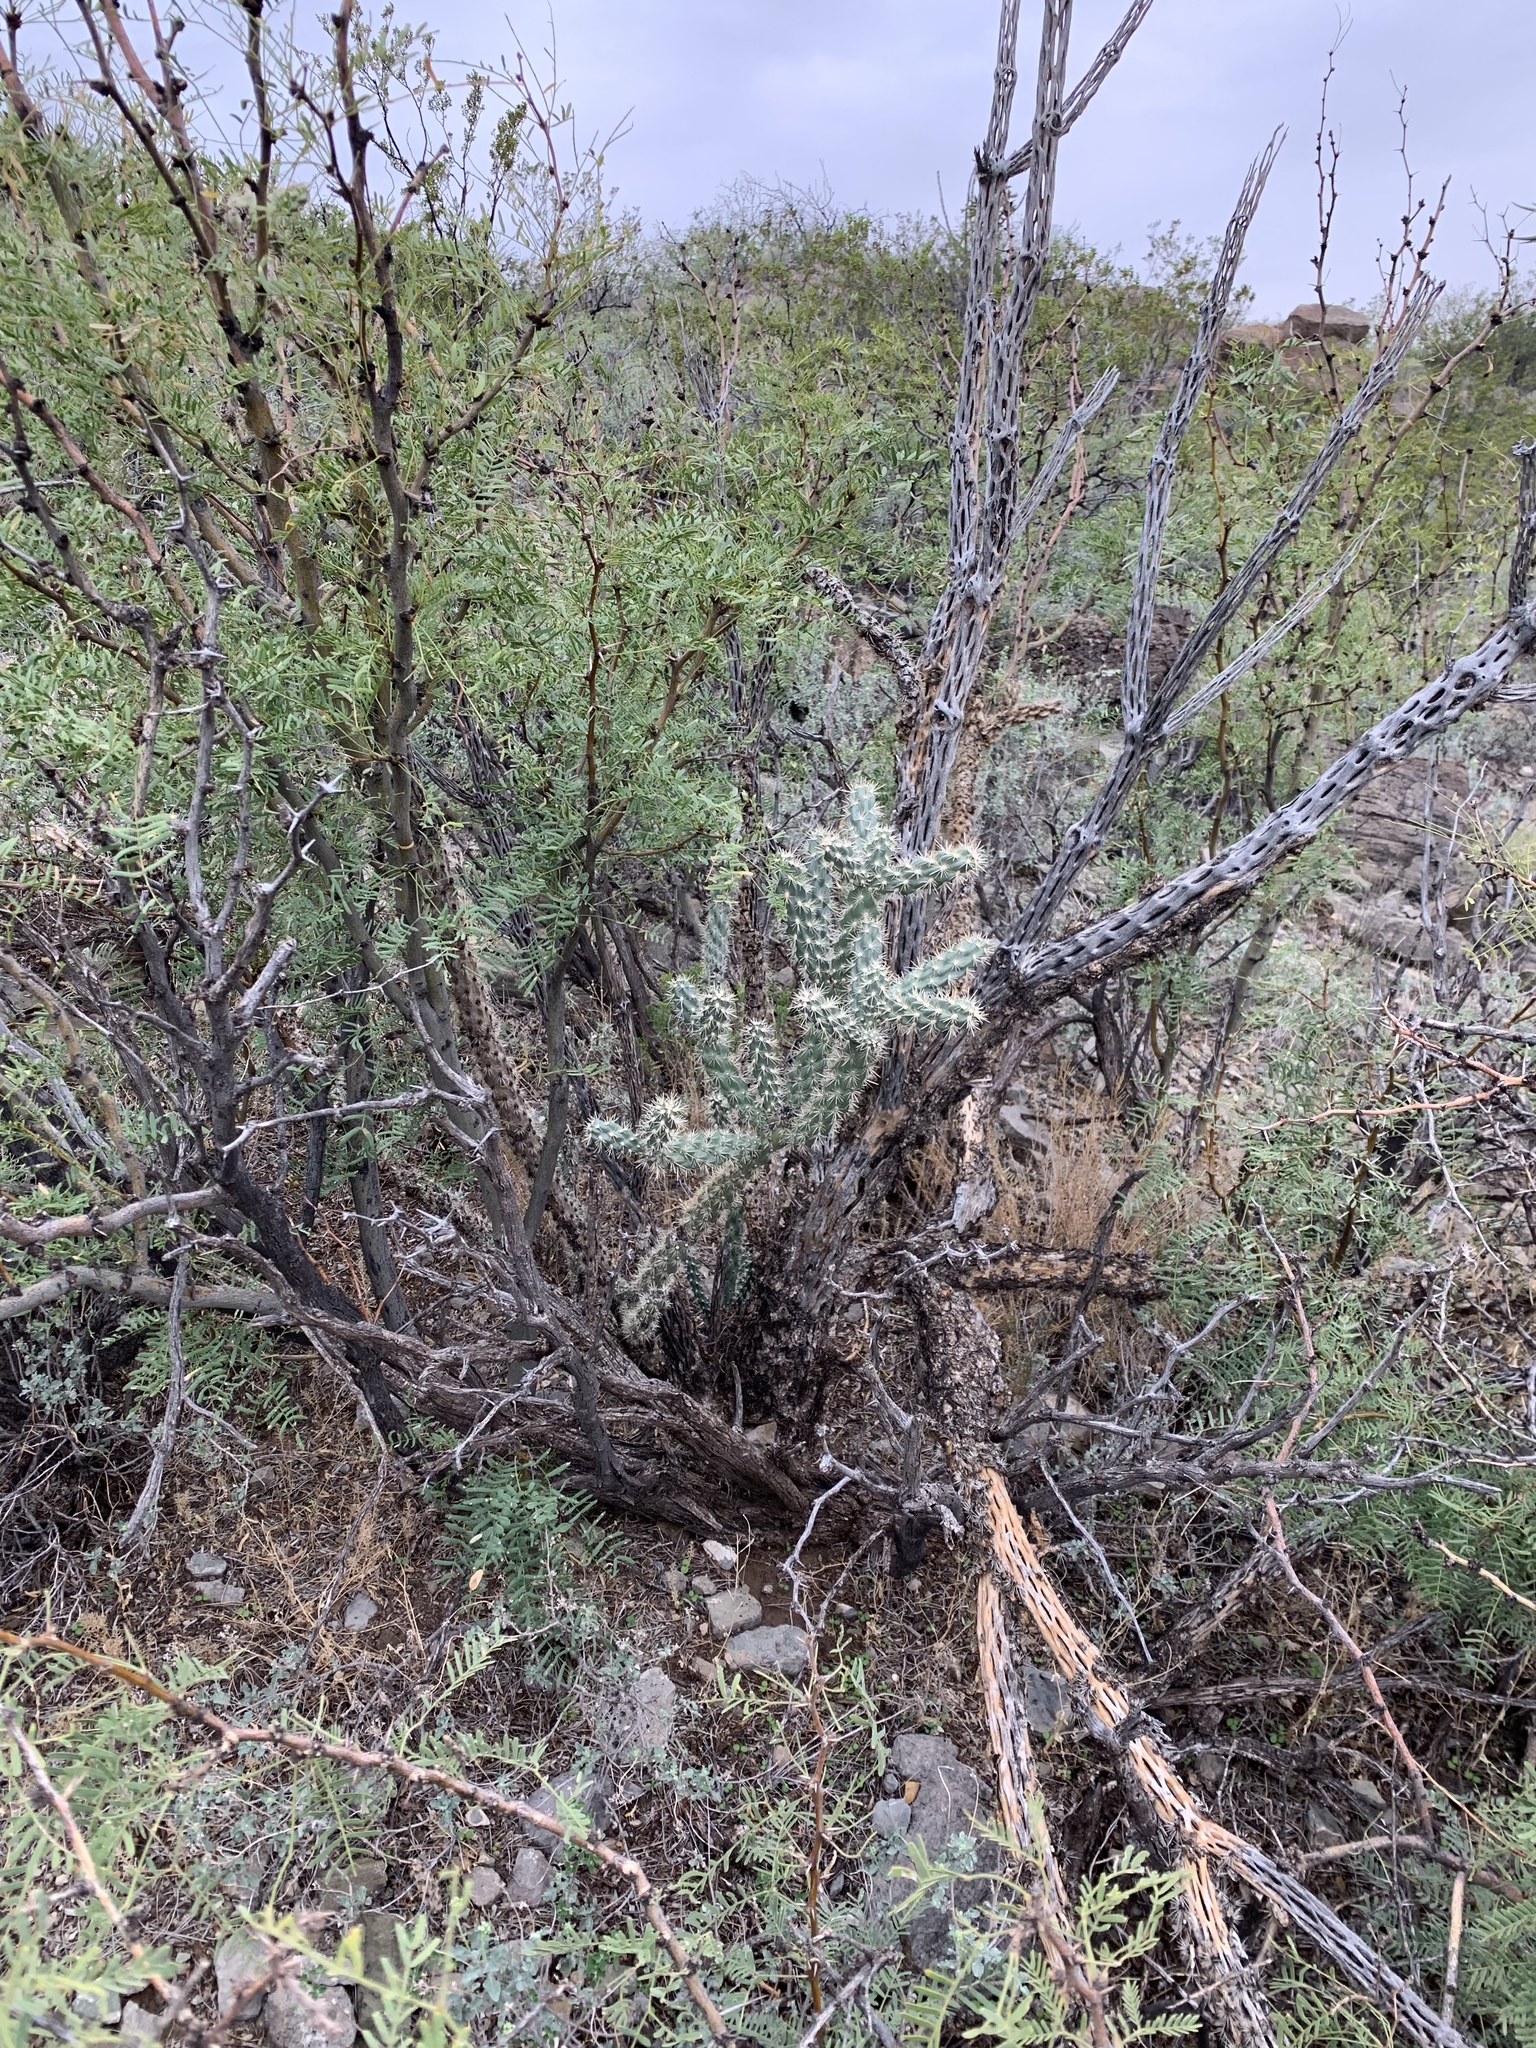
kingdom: Plantae
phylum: Tracheophyta
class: Magnoliopsida
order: Caryophyllales
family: Cactaceae
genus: Cylindropuntia
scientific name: Cylindropuntia imbricata
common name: Candelabrum cactus
